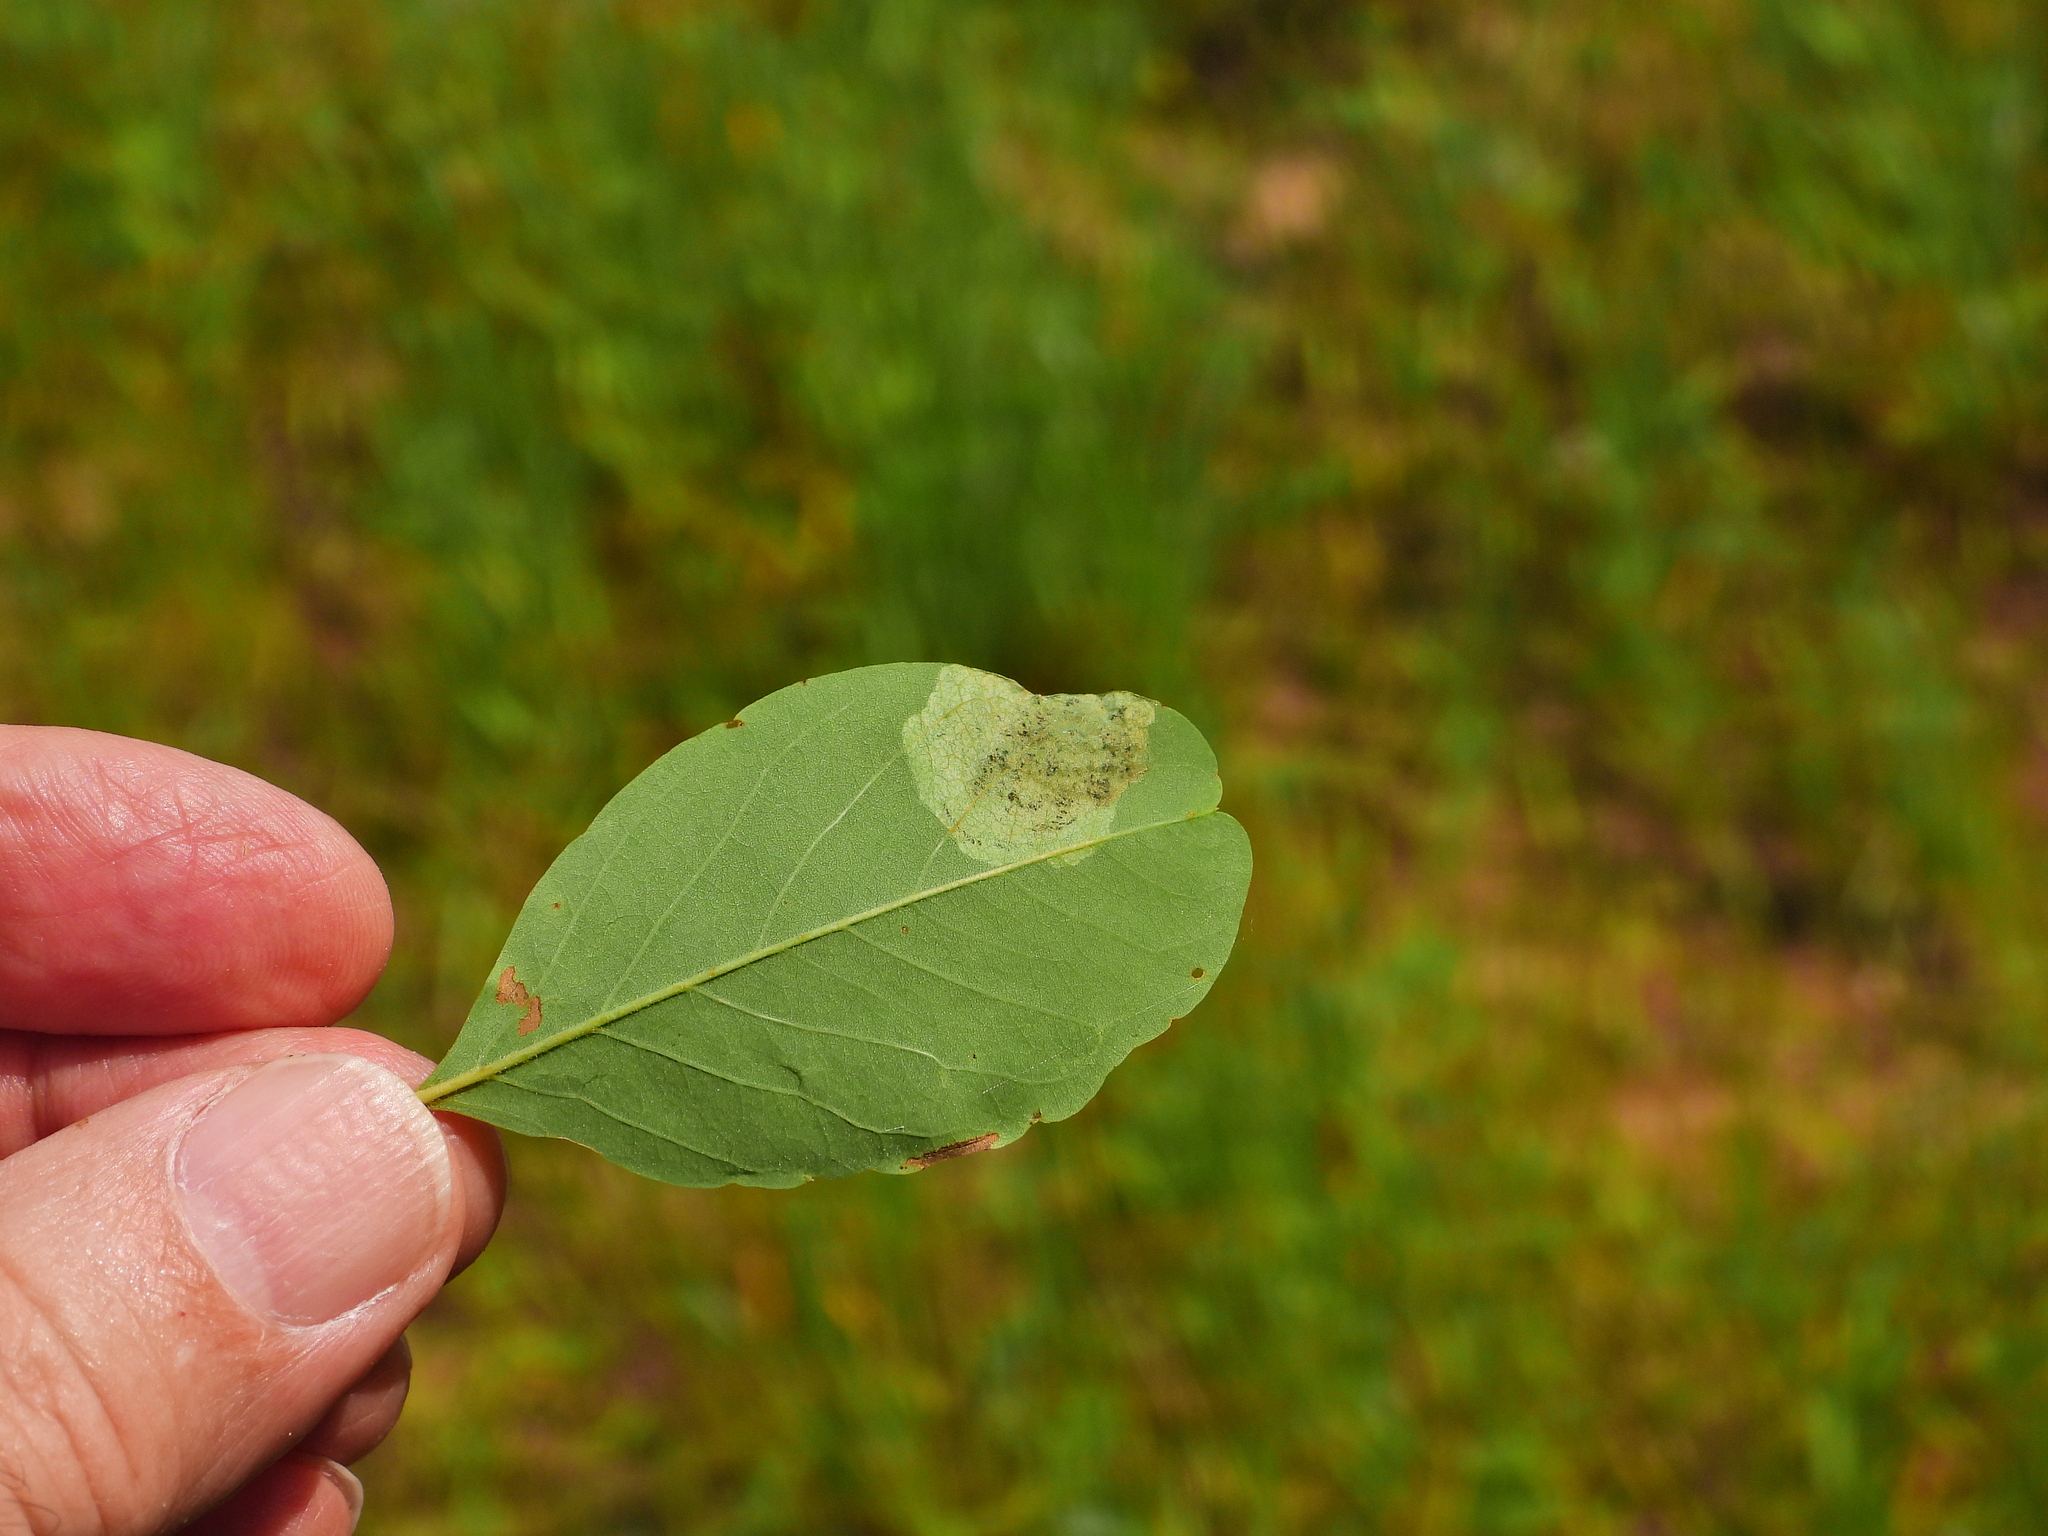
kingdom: Animalia
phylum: Arthropoda
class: Insecta
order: Coleoptera
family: Chrysomelidae
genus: Odontota
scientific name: Odontota dorsalis
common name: Locust leaf-miner beetle
